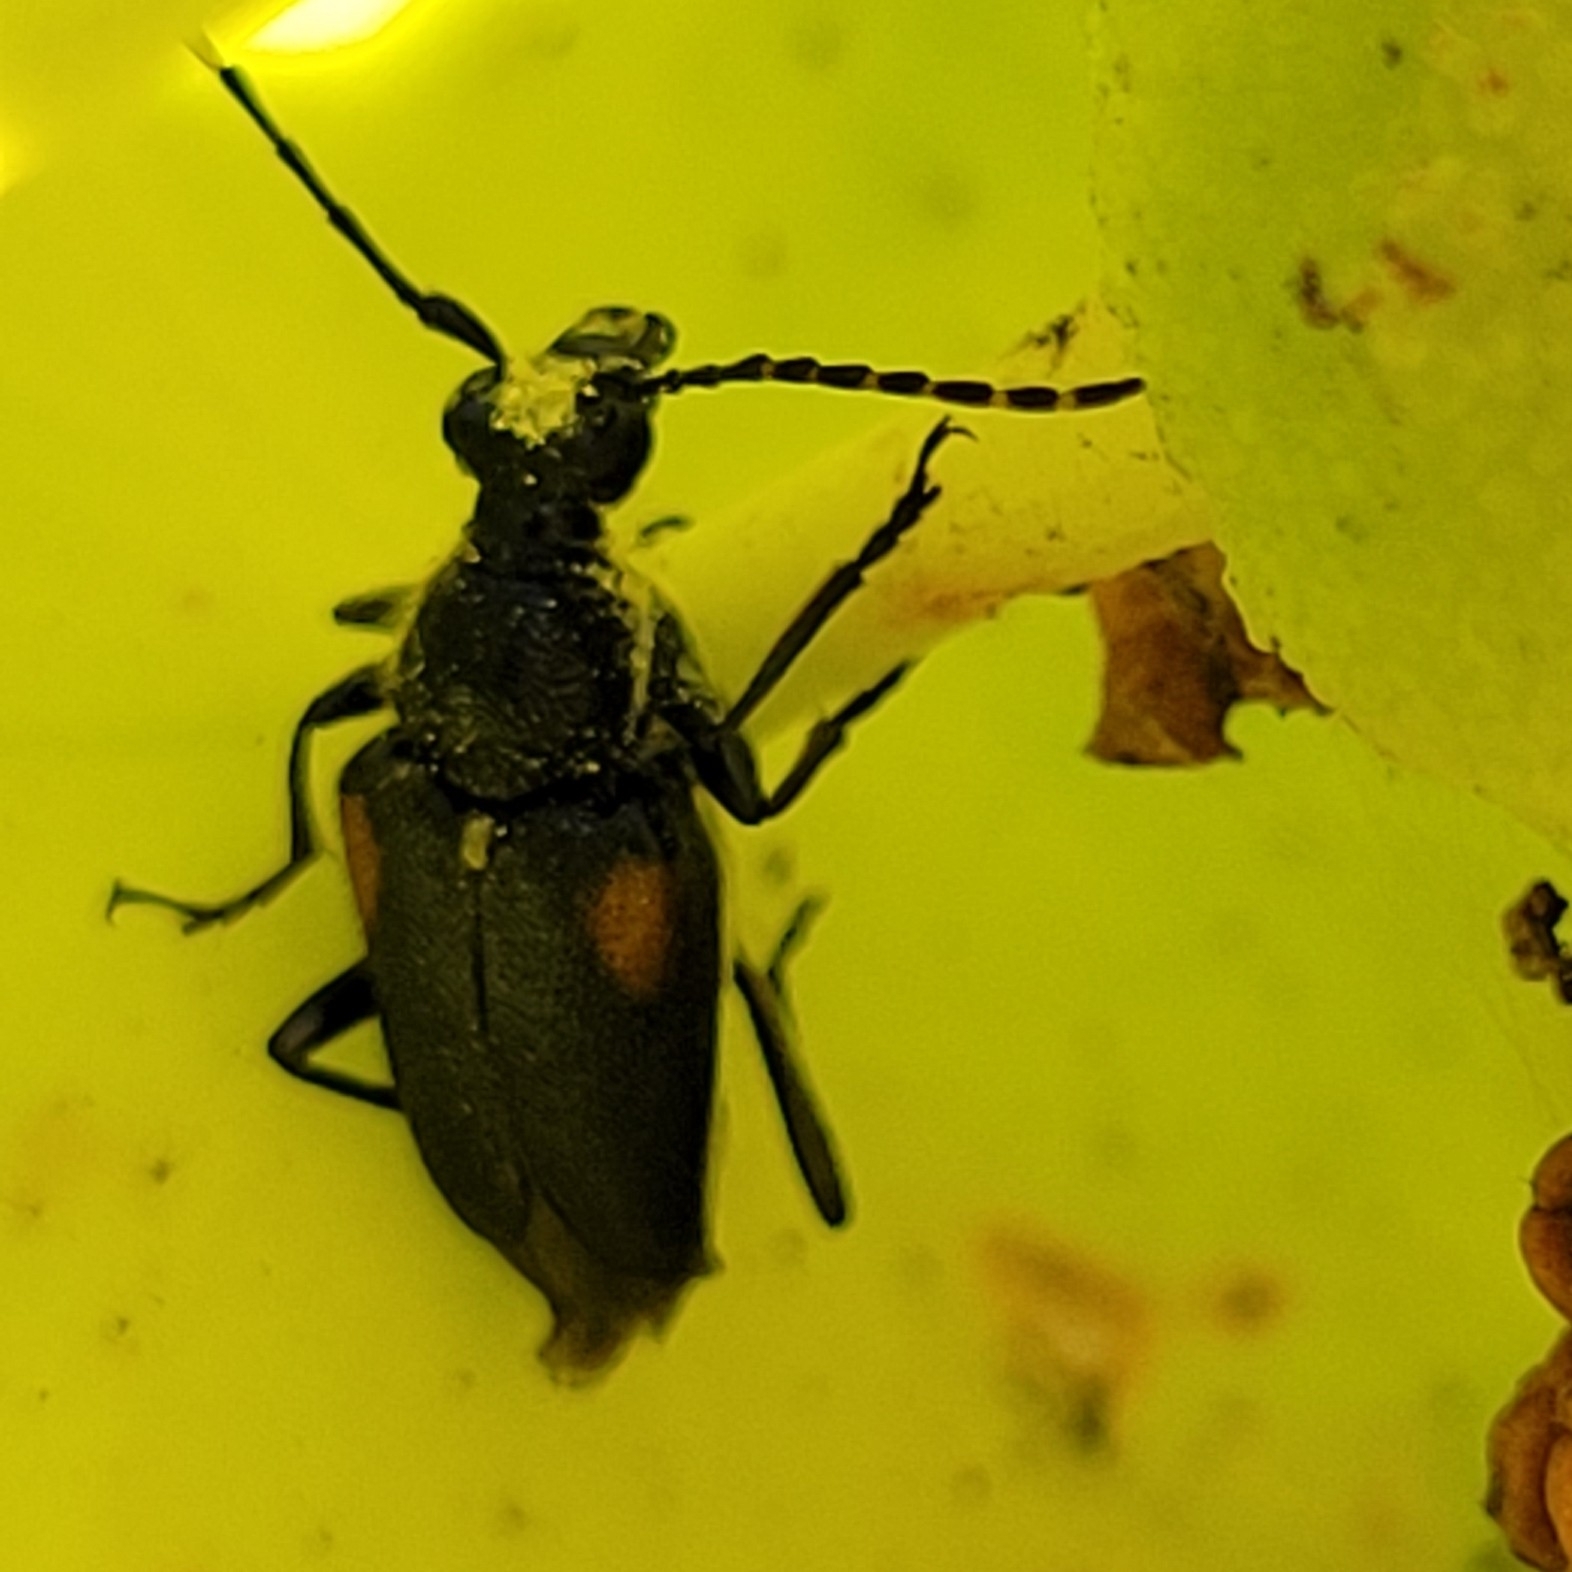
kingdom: Animalia
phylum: Arthropoda
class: Insecta
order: Coleoptera
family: Cerambycidae
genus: Brachyleptura
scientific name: Brachyleptura vagans
